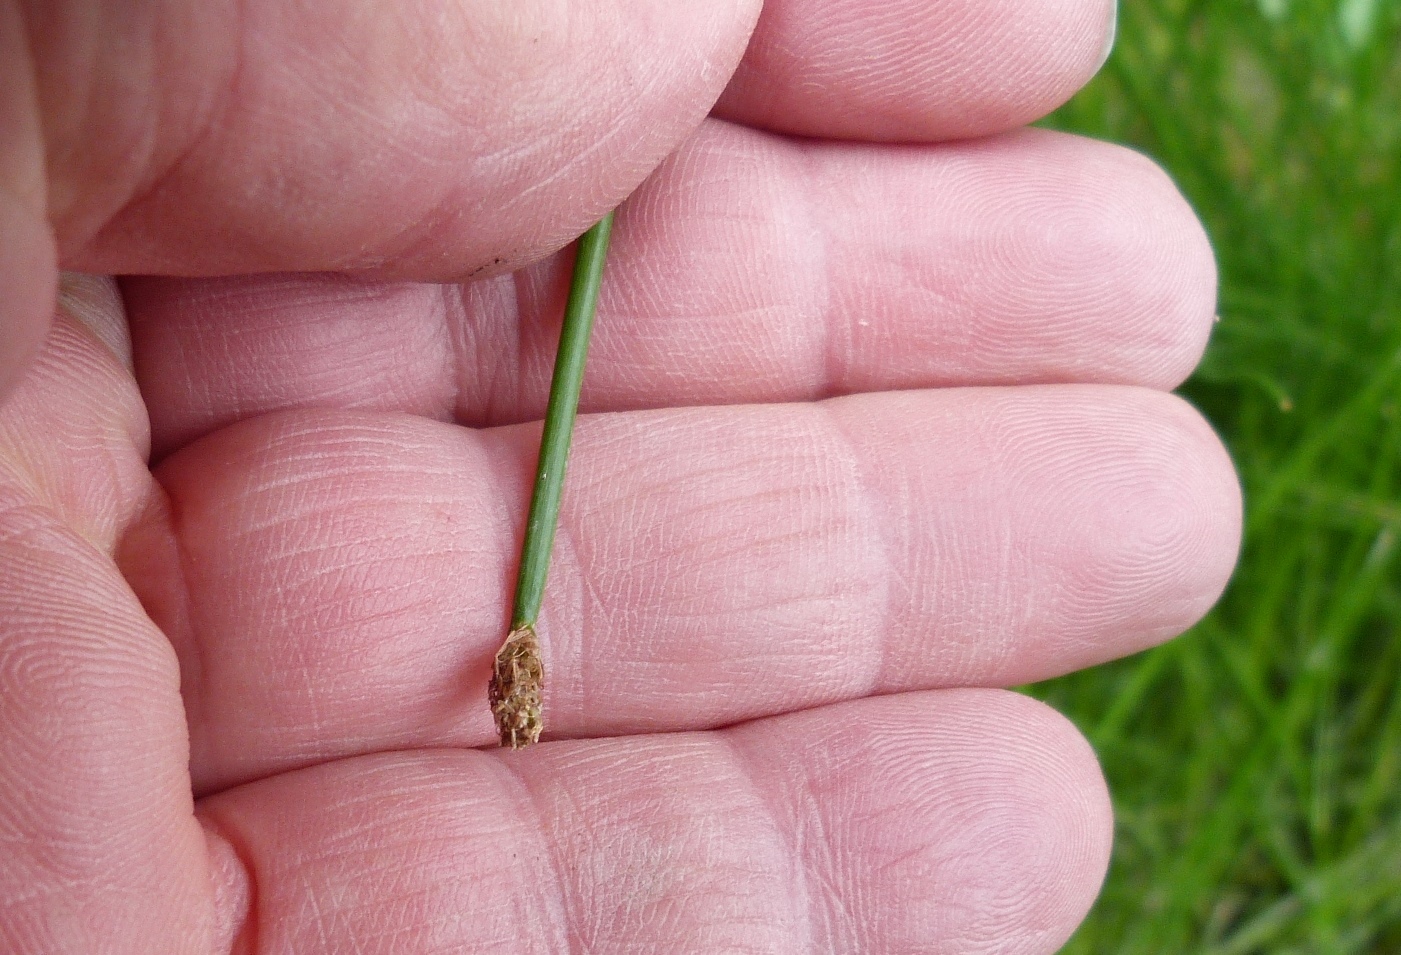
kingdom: Plantae
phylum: Tracheophyta
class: Liliopsida
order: Poales
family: Cyperaceae
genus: Eleocharis
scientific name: Eleocharis acuta
